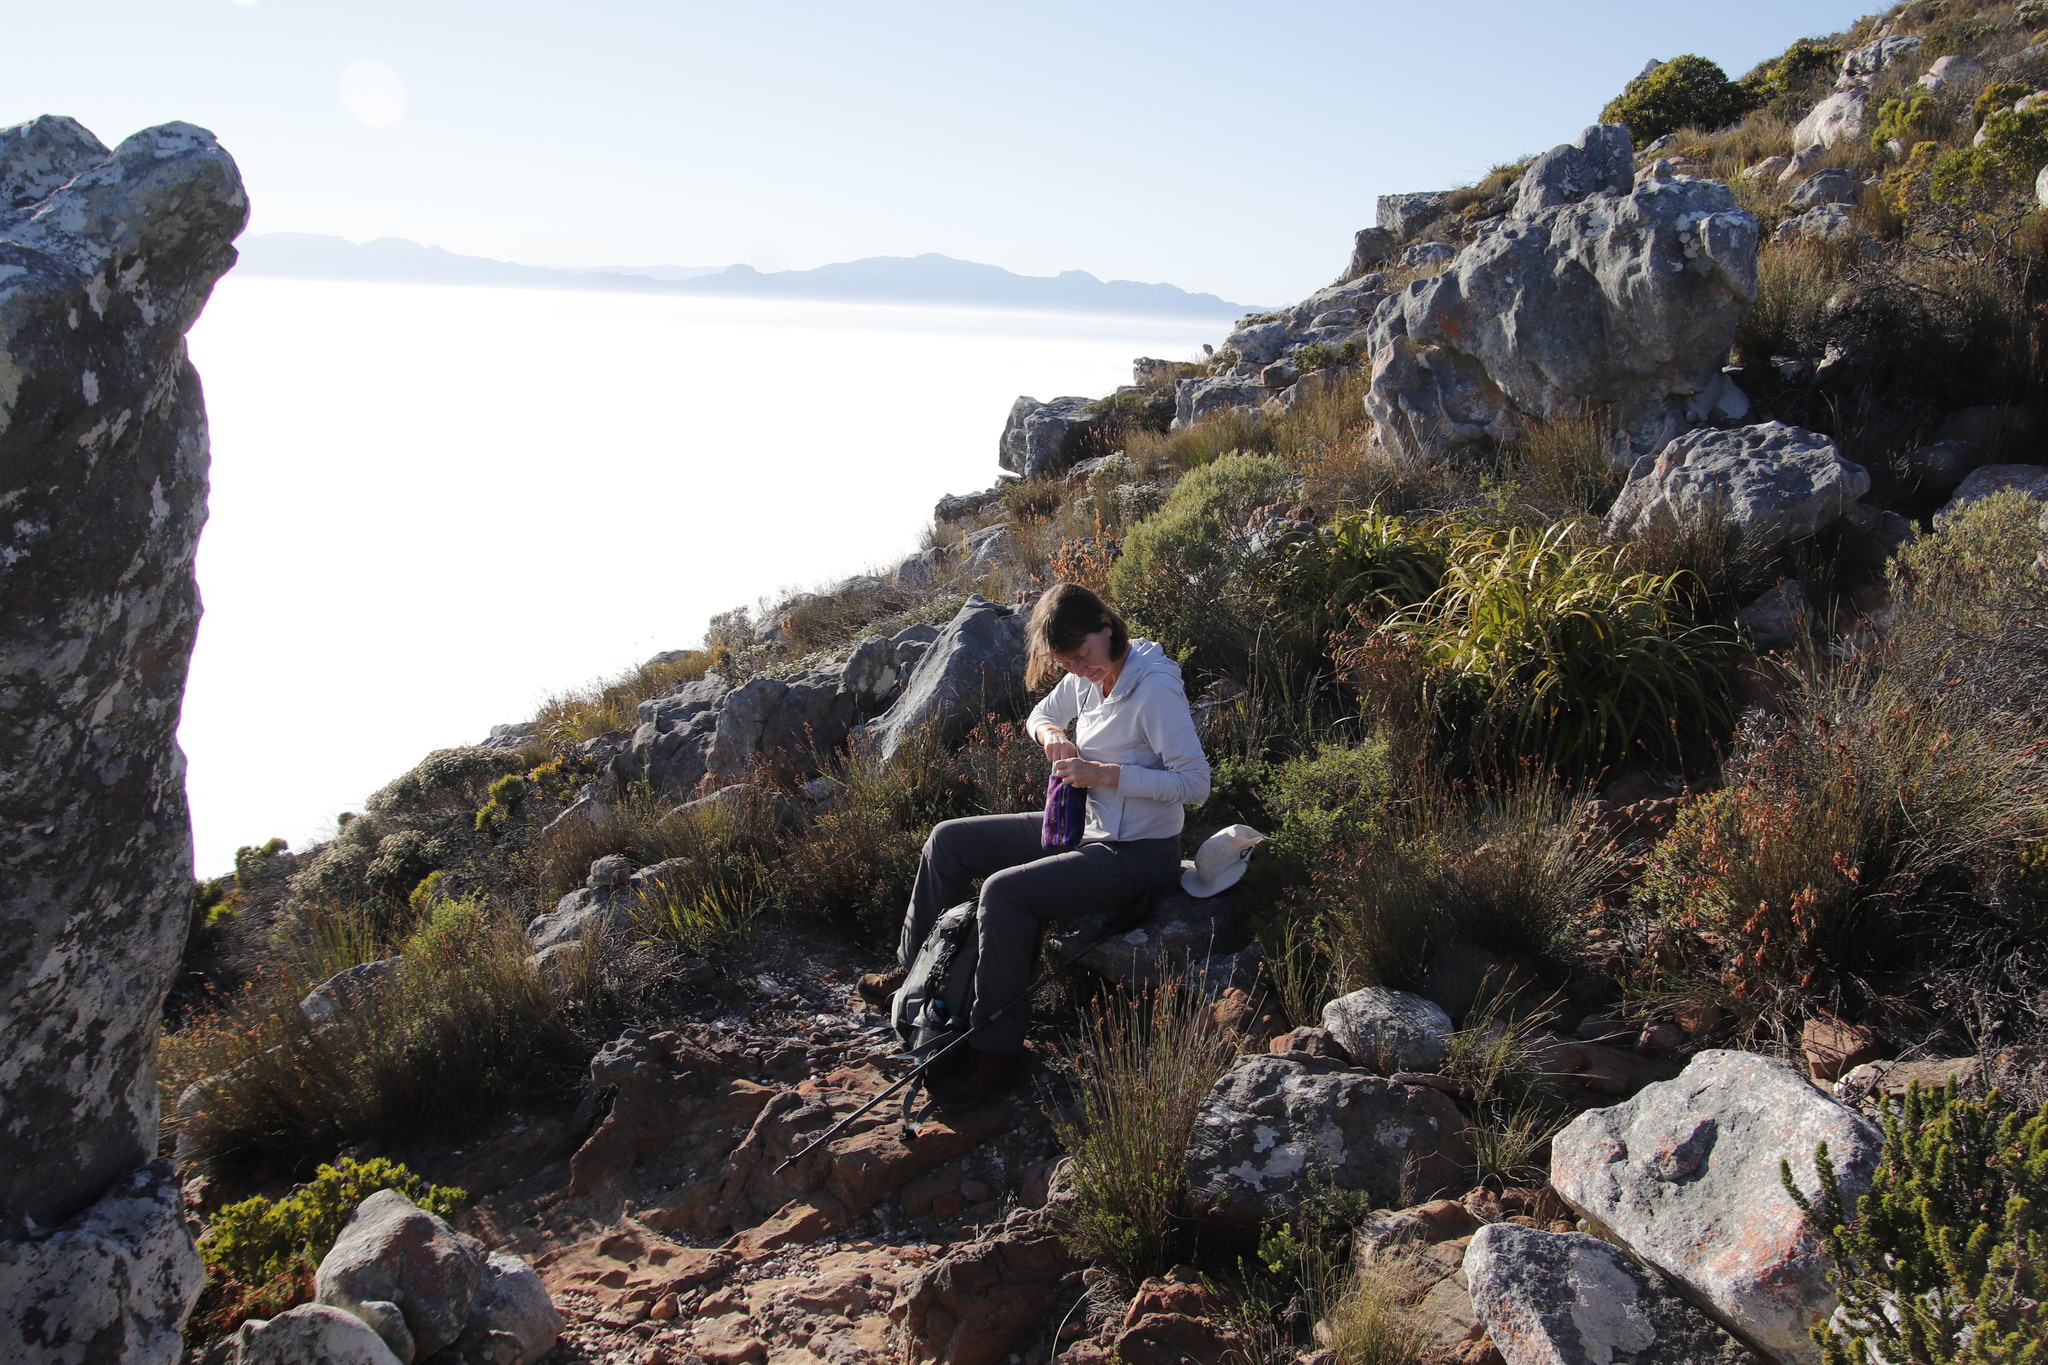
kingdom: Plantae
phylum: Tracheophyta
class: Liliopsida
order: Poales
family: Cyperaceae
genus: Tetraria
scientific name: Tetraria thermalis
